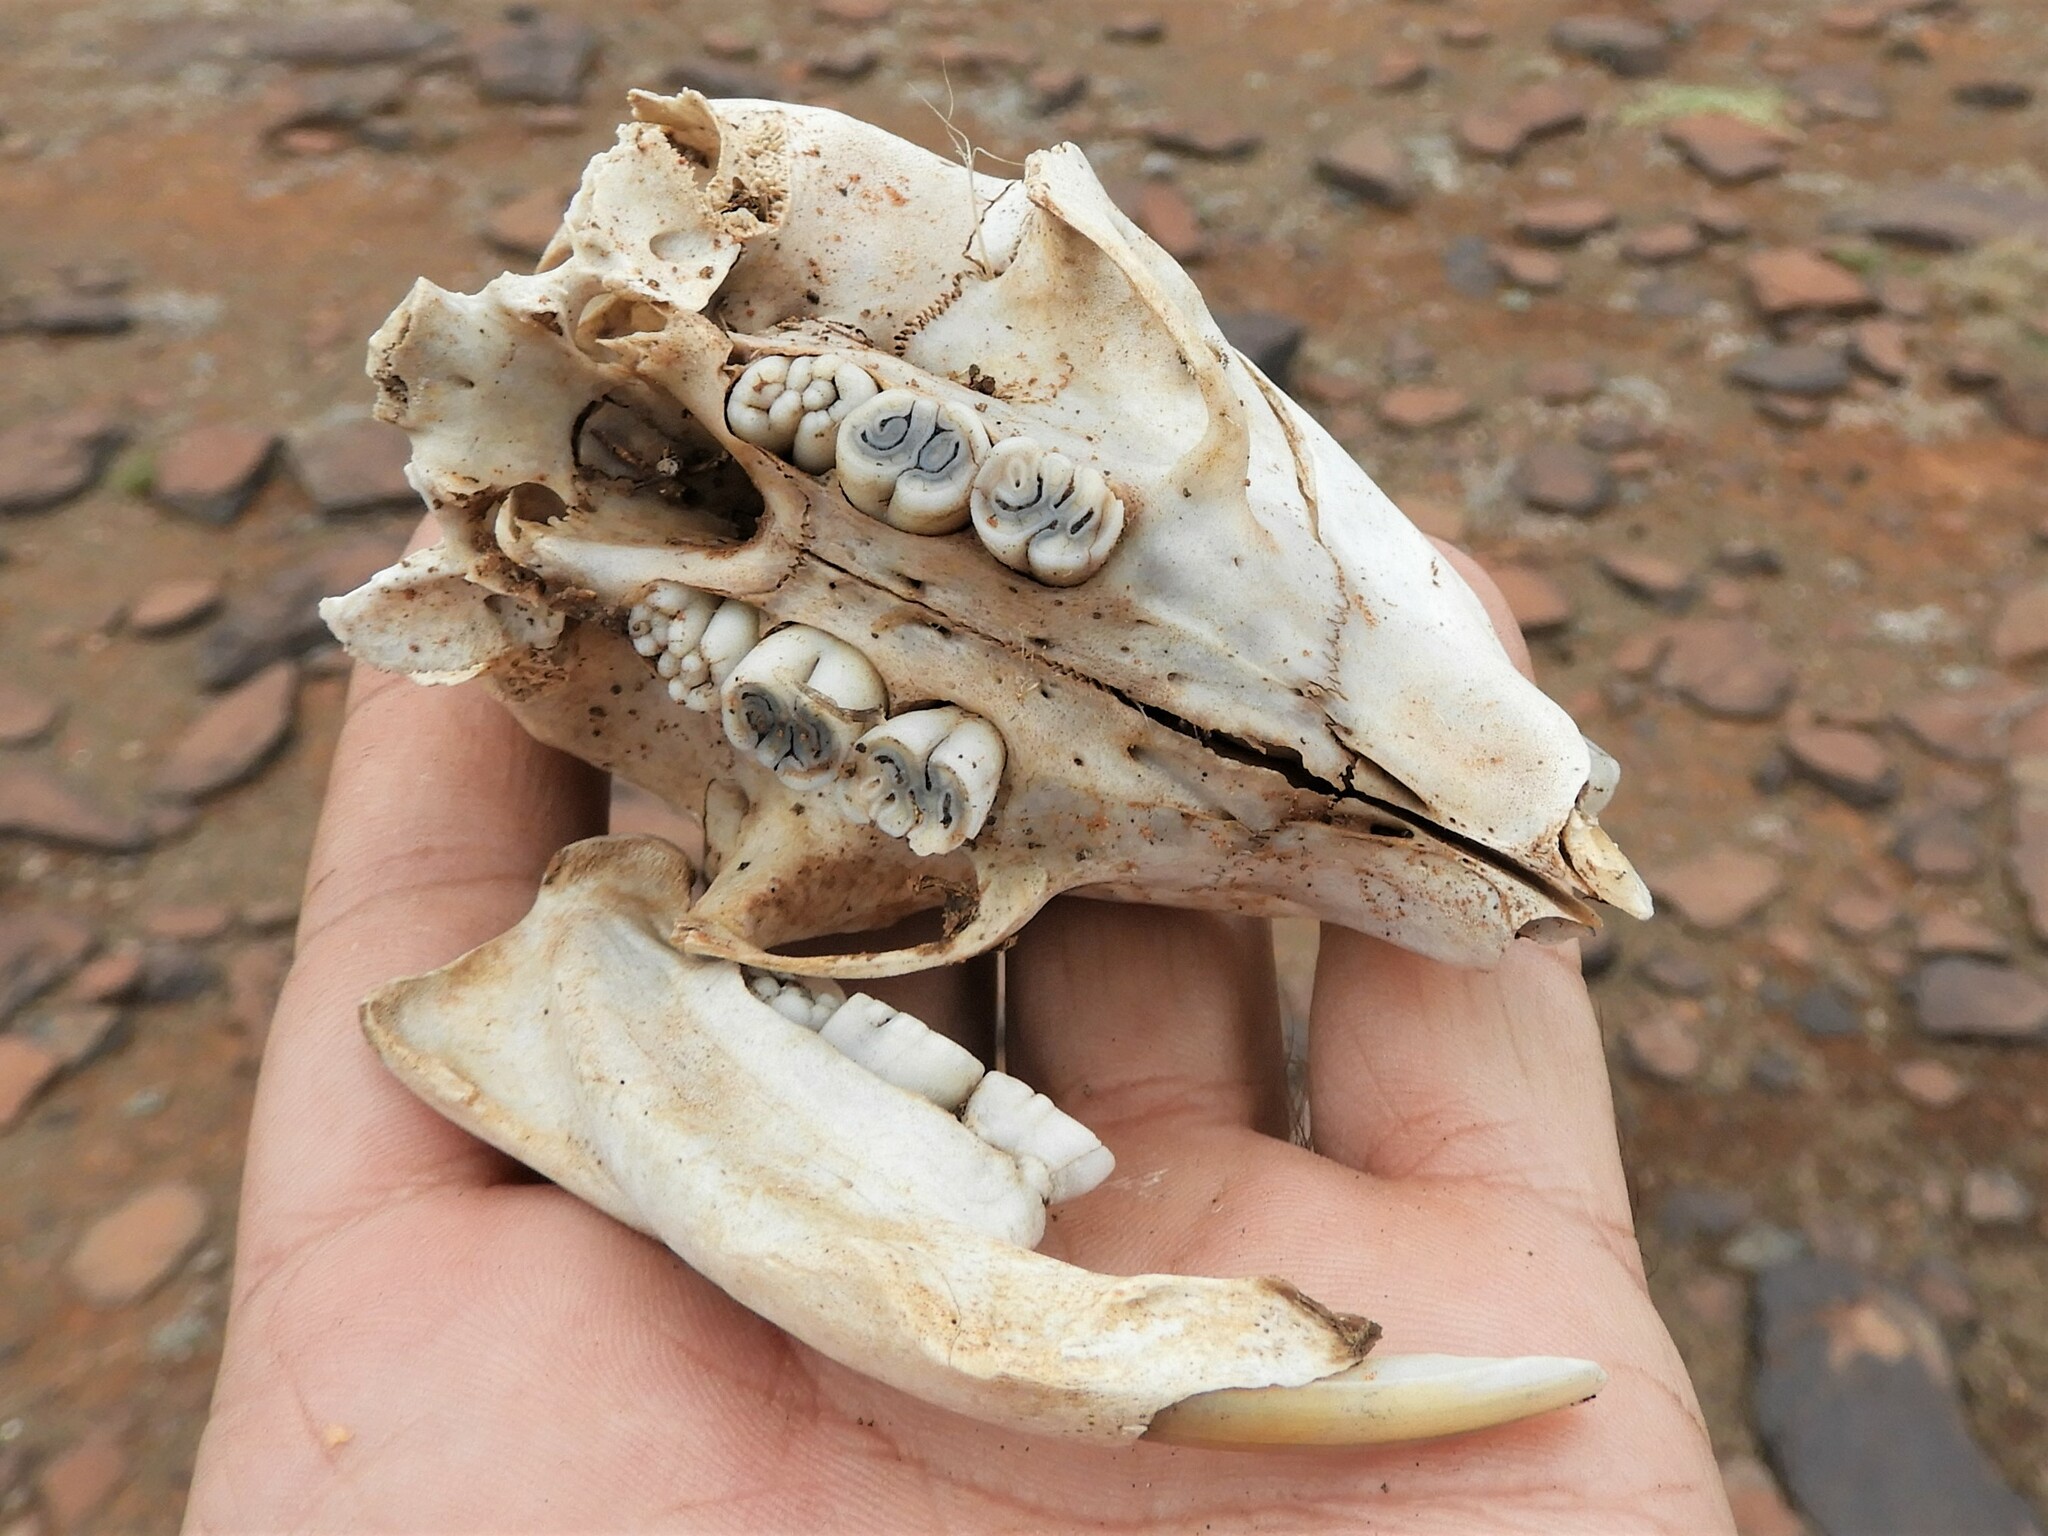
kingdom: Animalia
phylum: Chordata
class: Mammalia
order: Rodentia
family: Hystricidae
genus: Hystrix
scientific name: Hystrix africaeaustralis
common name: Cape porcupine
